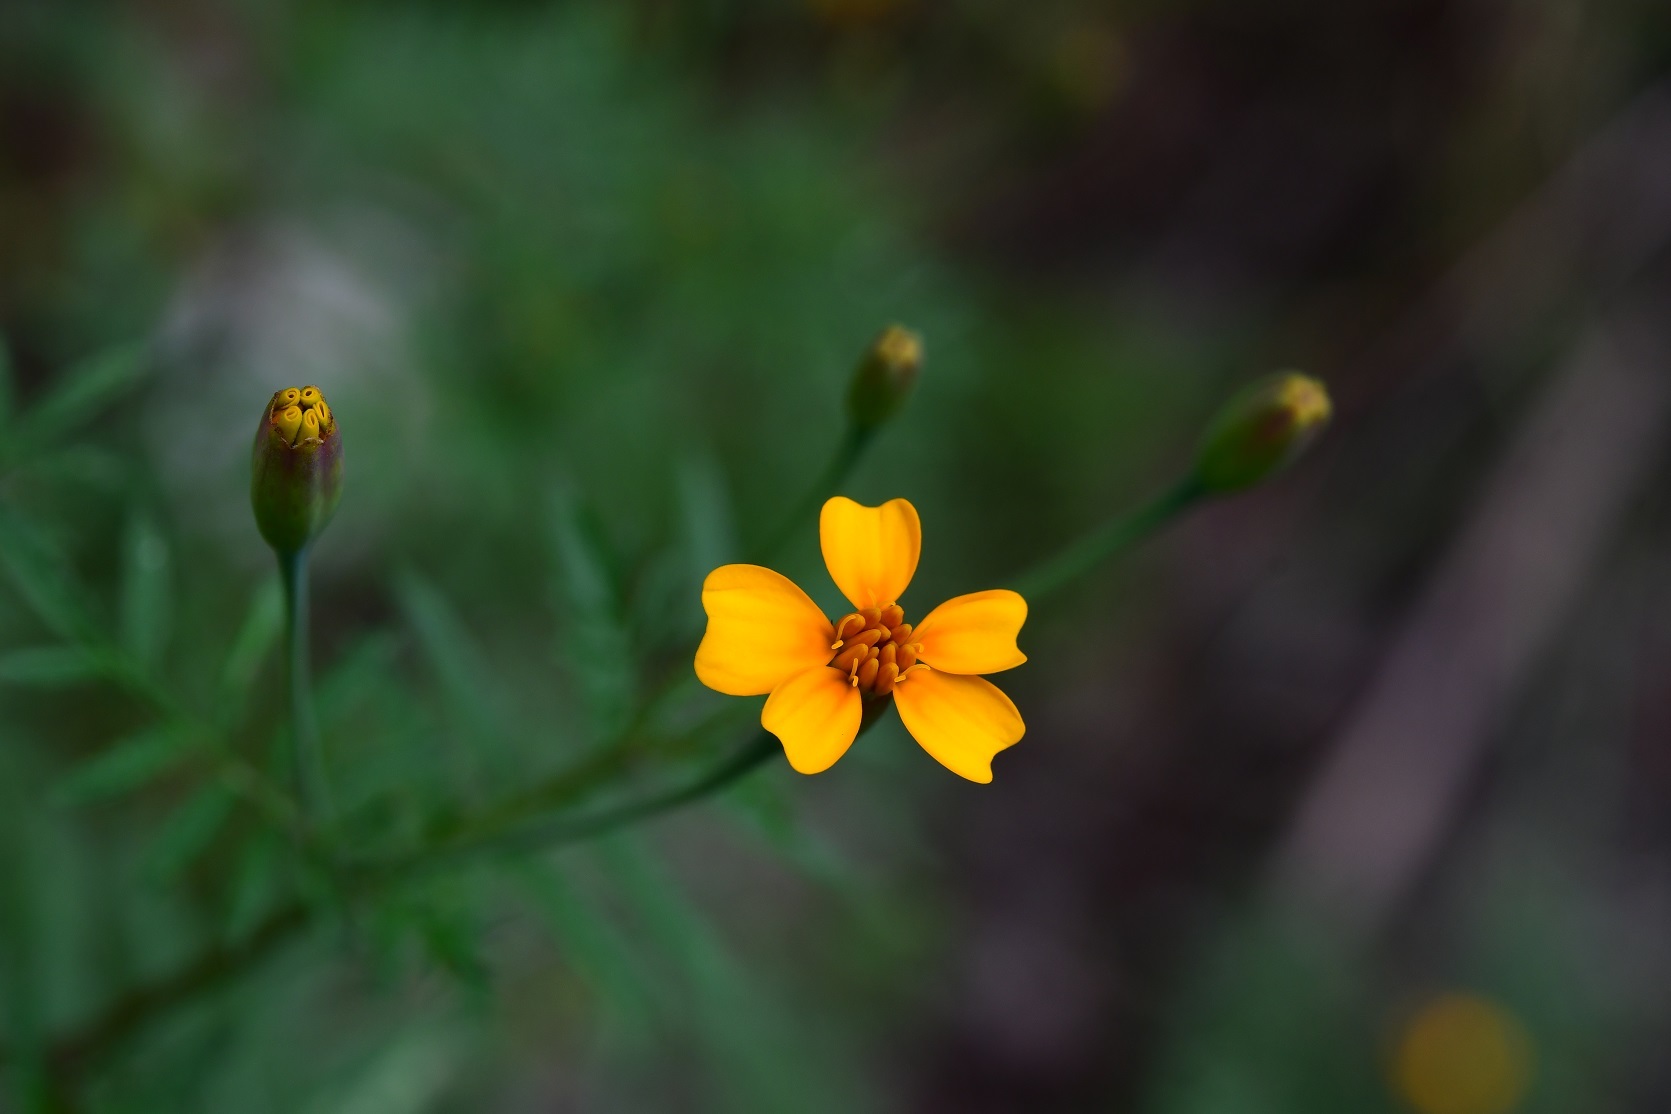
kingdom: Plantae
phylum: Tracheophyta
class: Magnoliopsida
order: Asterales
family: Asteraceae
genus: Tagetes
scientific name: Tagetes tenuifolia
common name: Signet marigold
